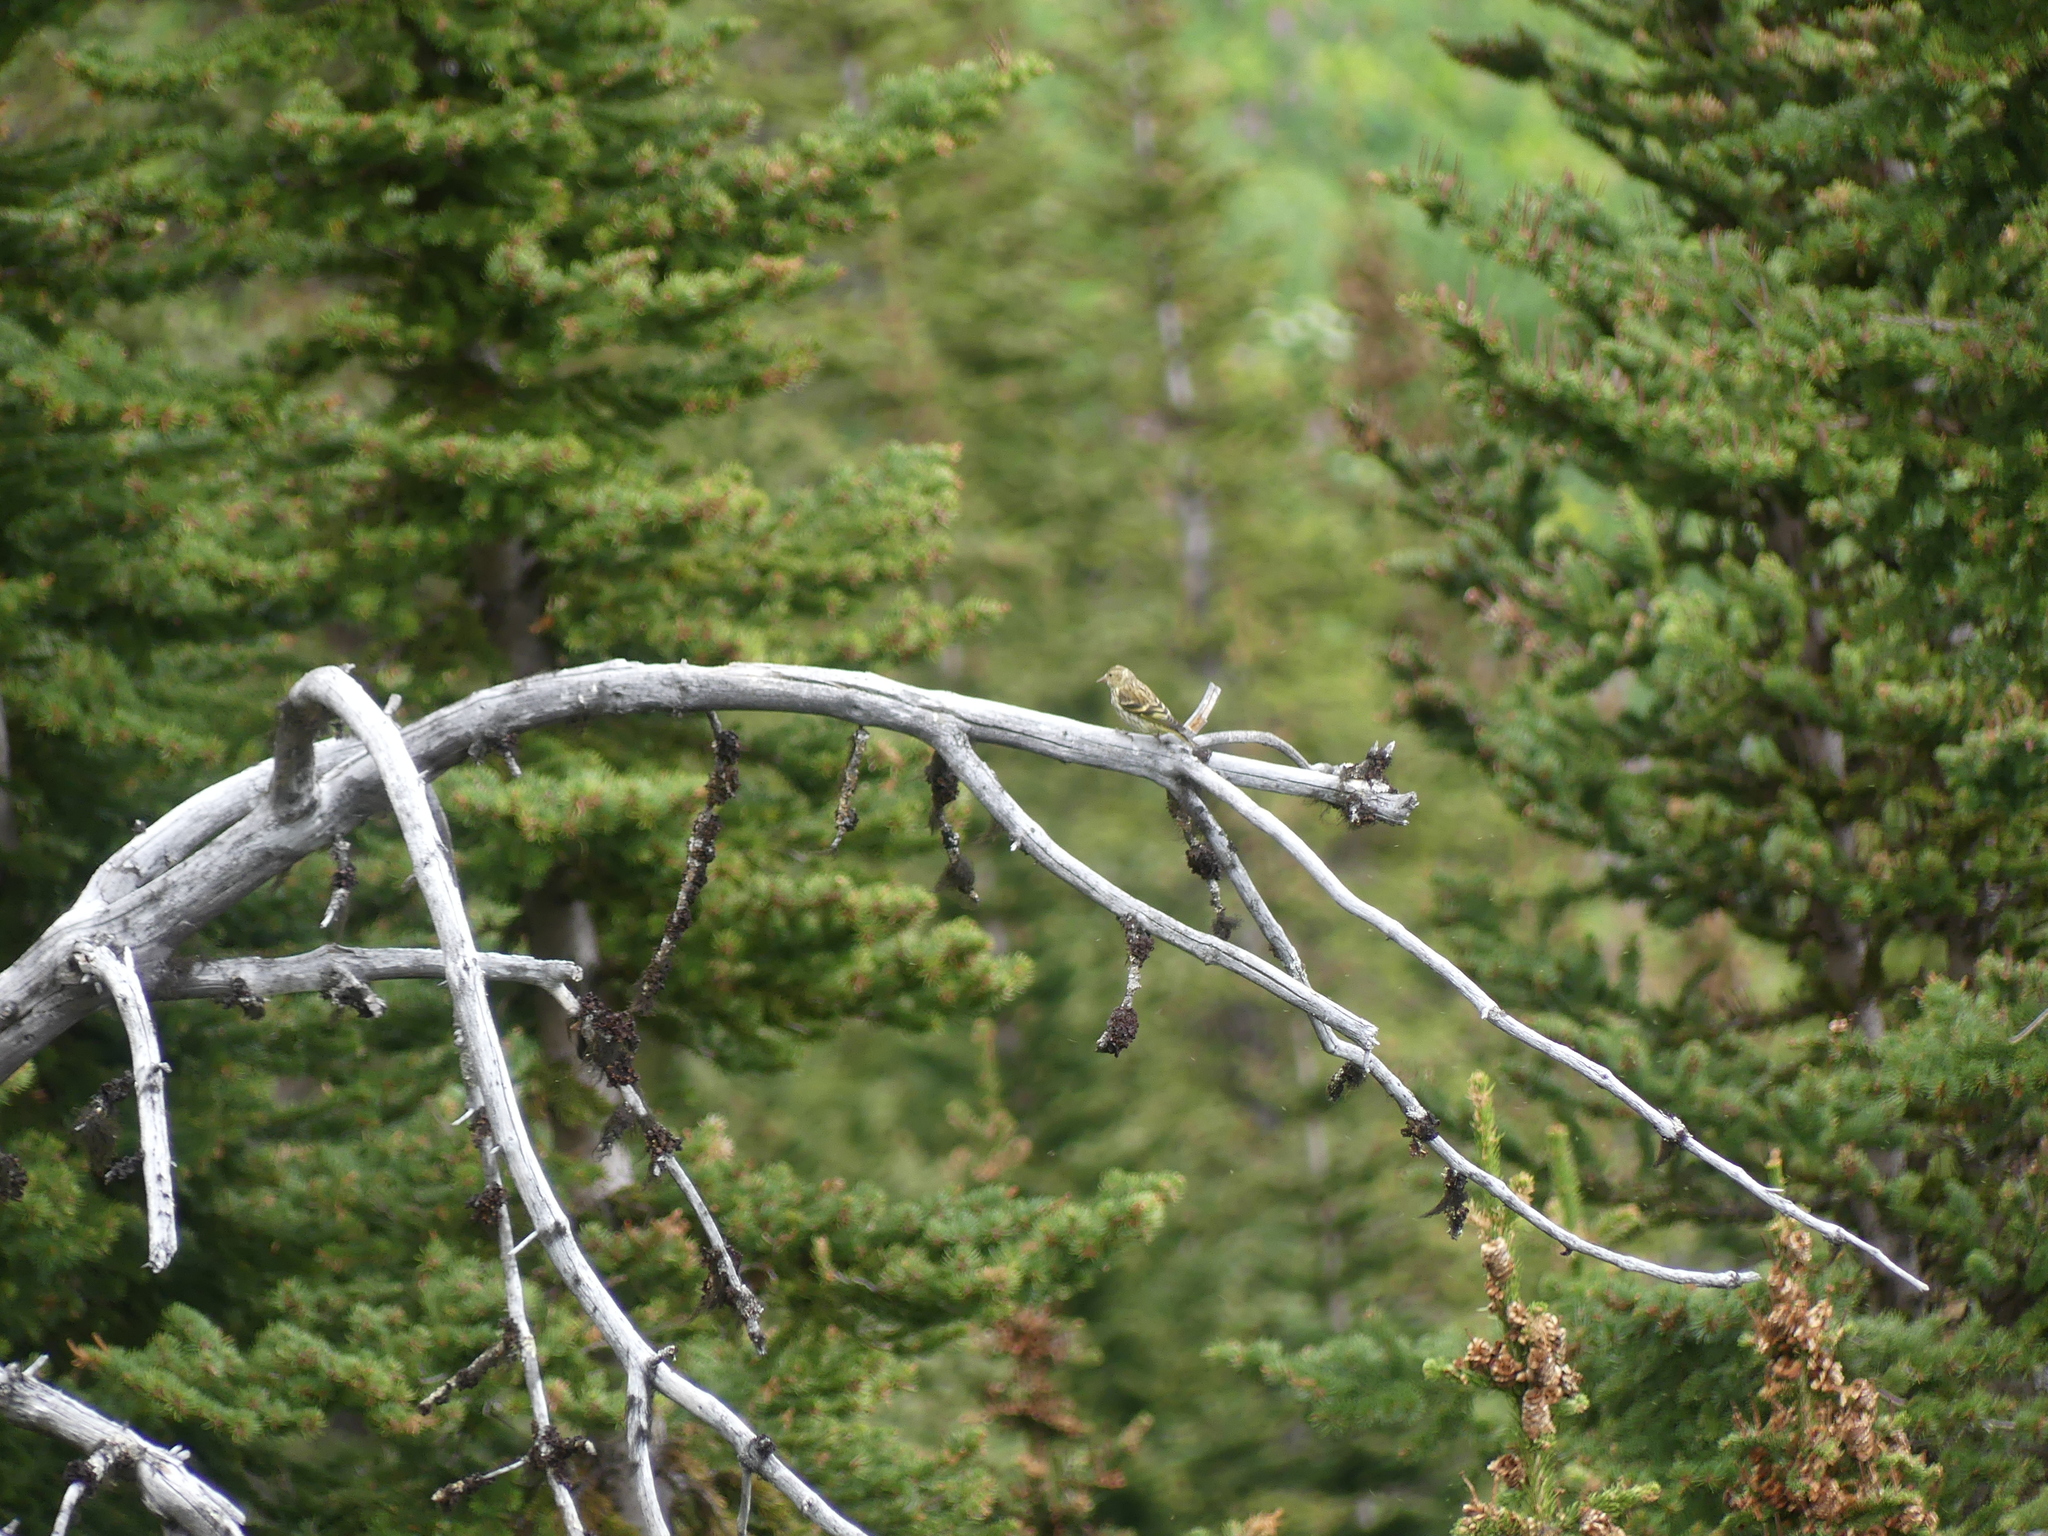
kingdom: Animalia
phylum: Chordata
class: Aves
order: Passeriformes
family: Fringillidae
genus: Spinus
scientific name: Spinus pinus
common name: Pine siskin
